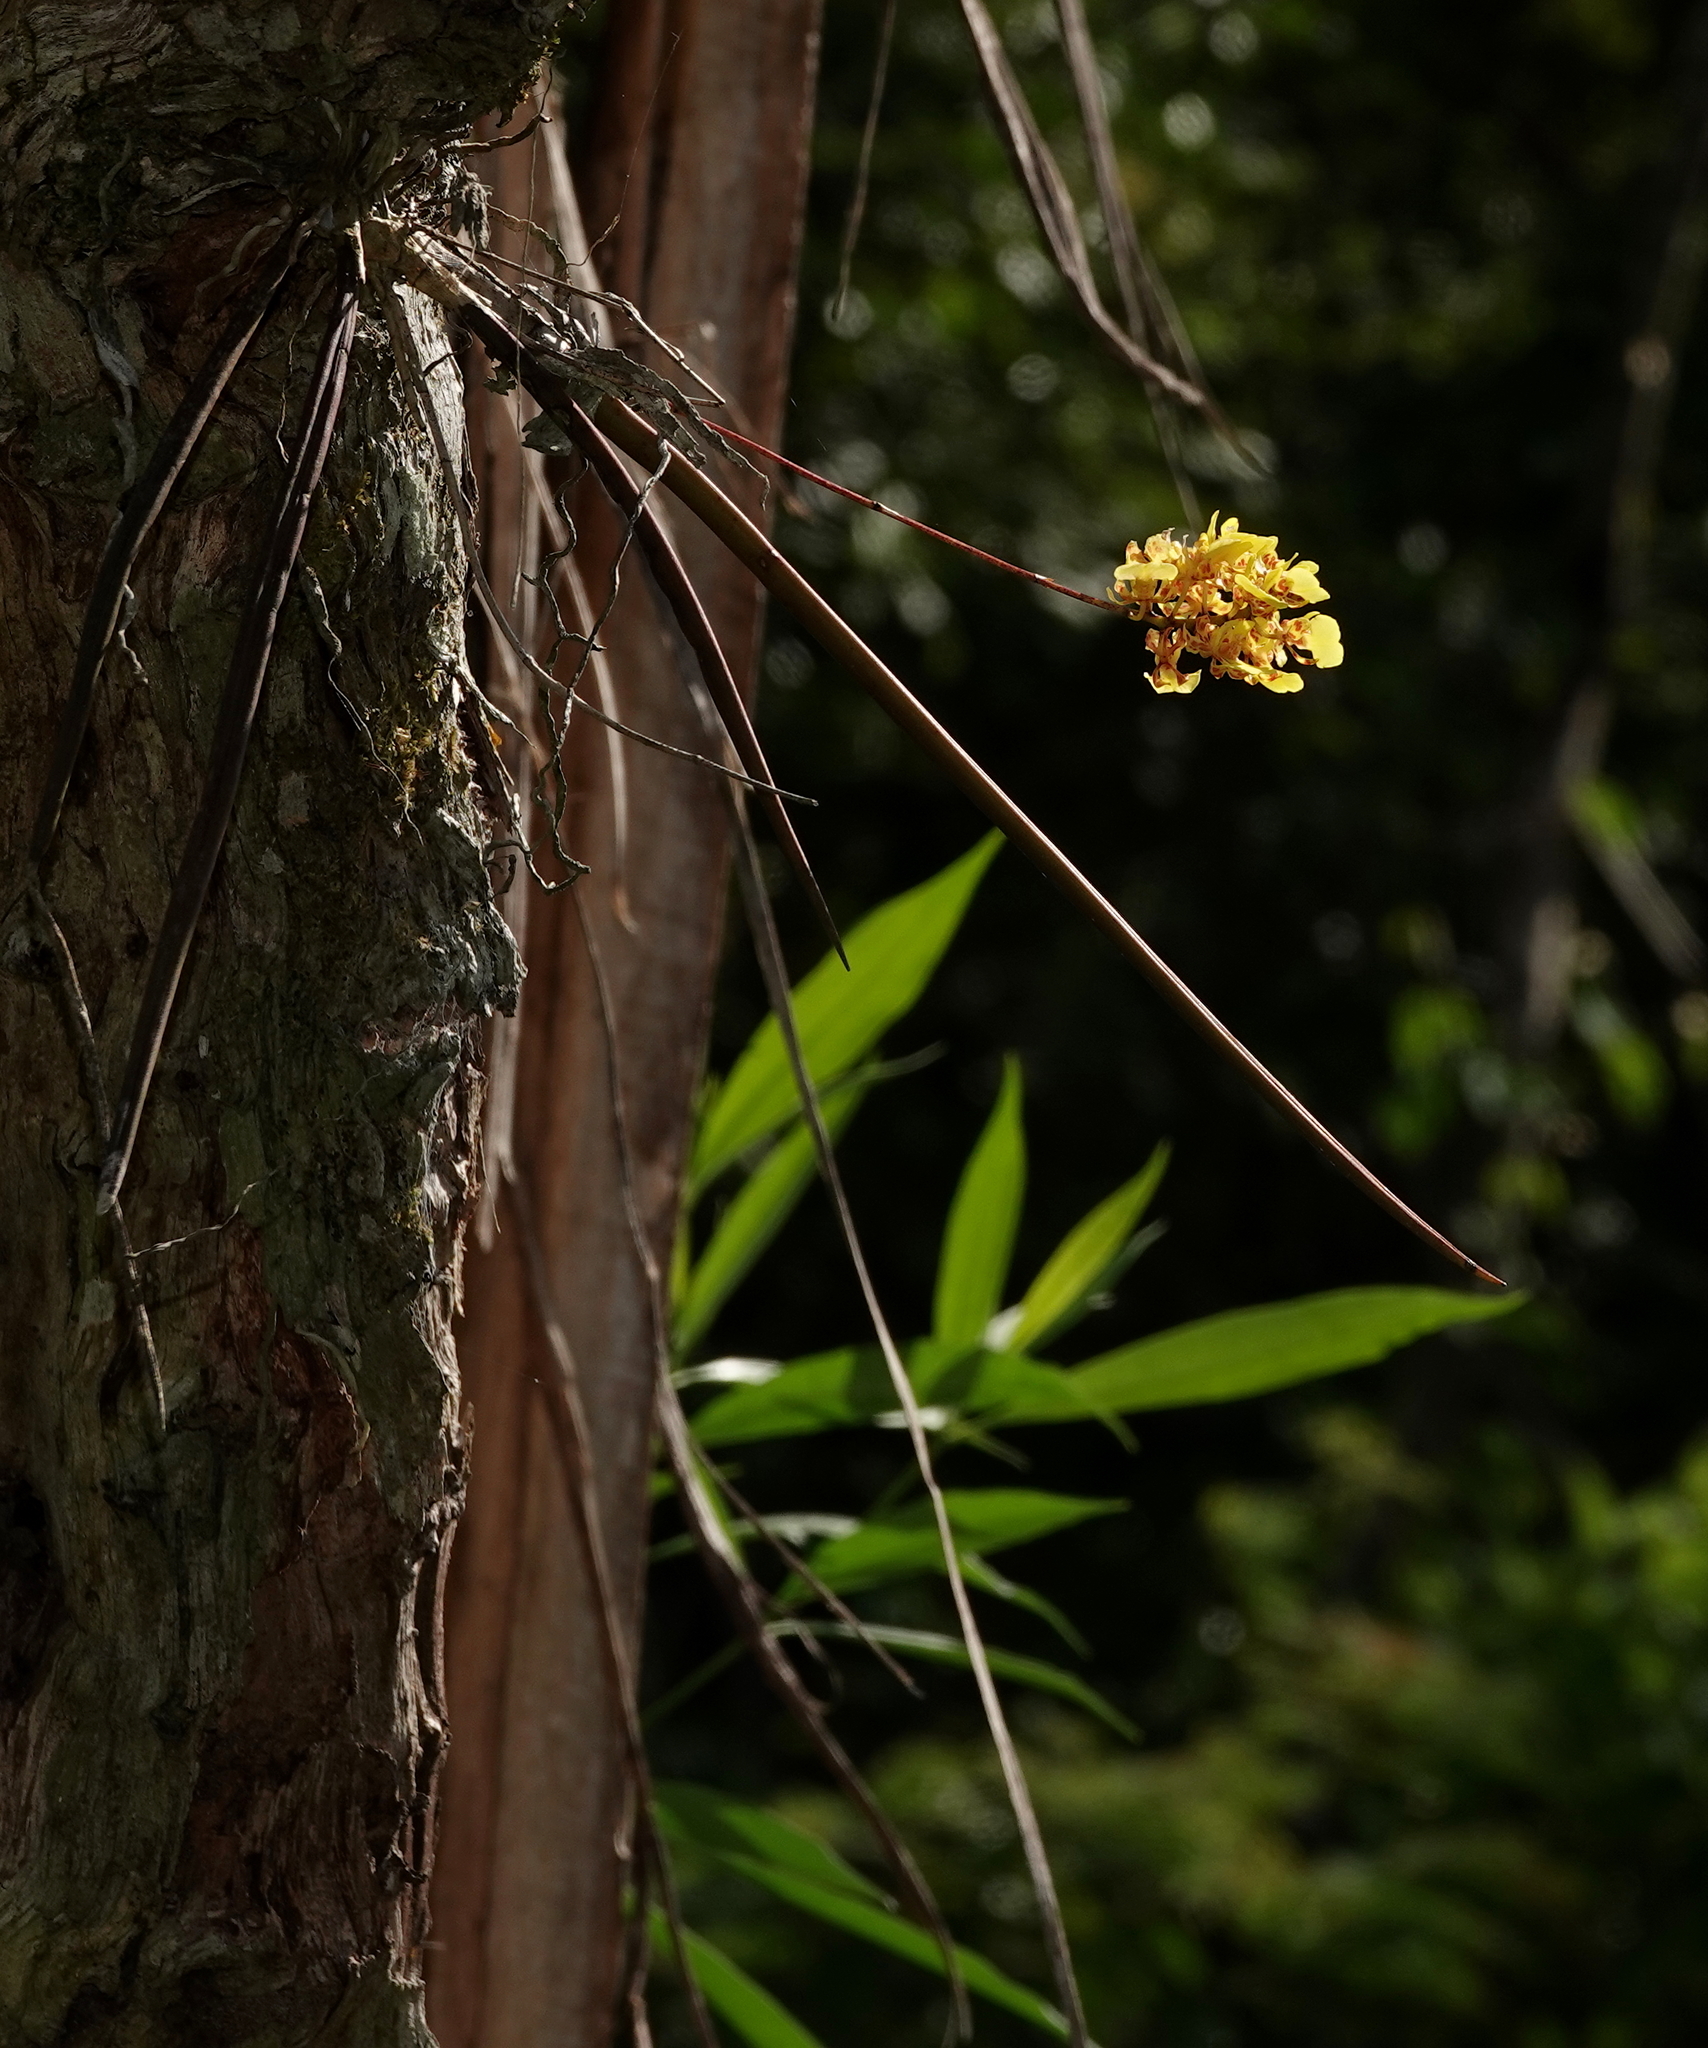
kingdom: Plantae
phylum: Tracheophyta
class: Liliopsida
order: Asparagales
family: Orchidaceae
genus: Trichocentrum
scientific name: Trichocentrum cebolleta
